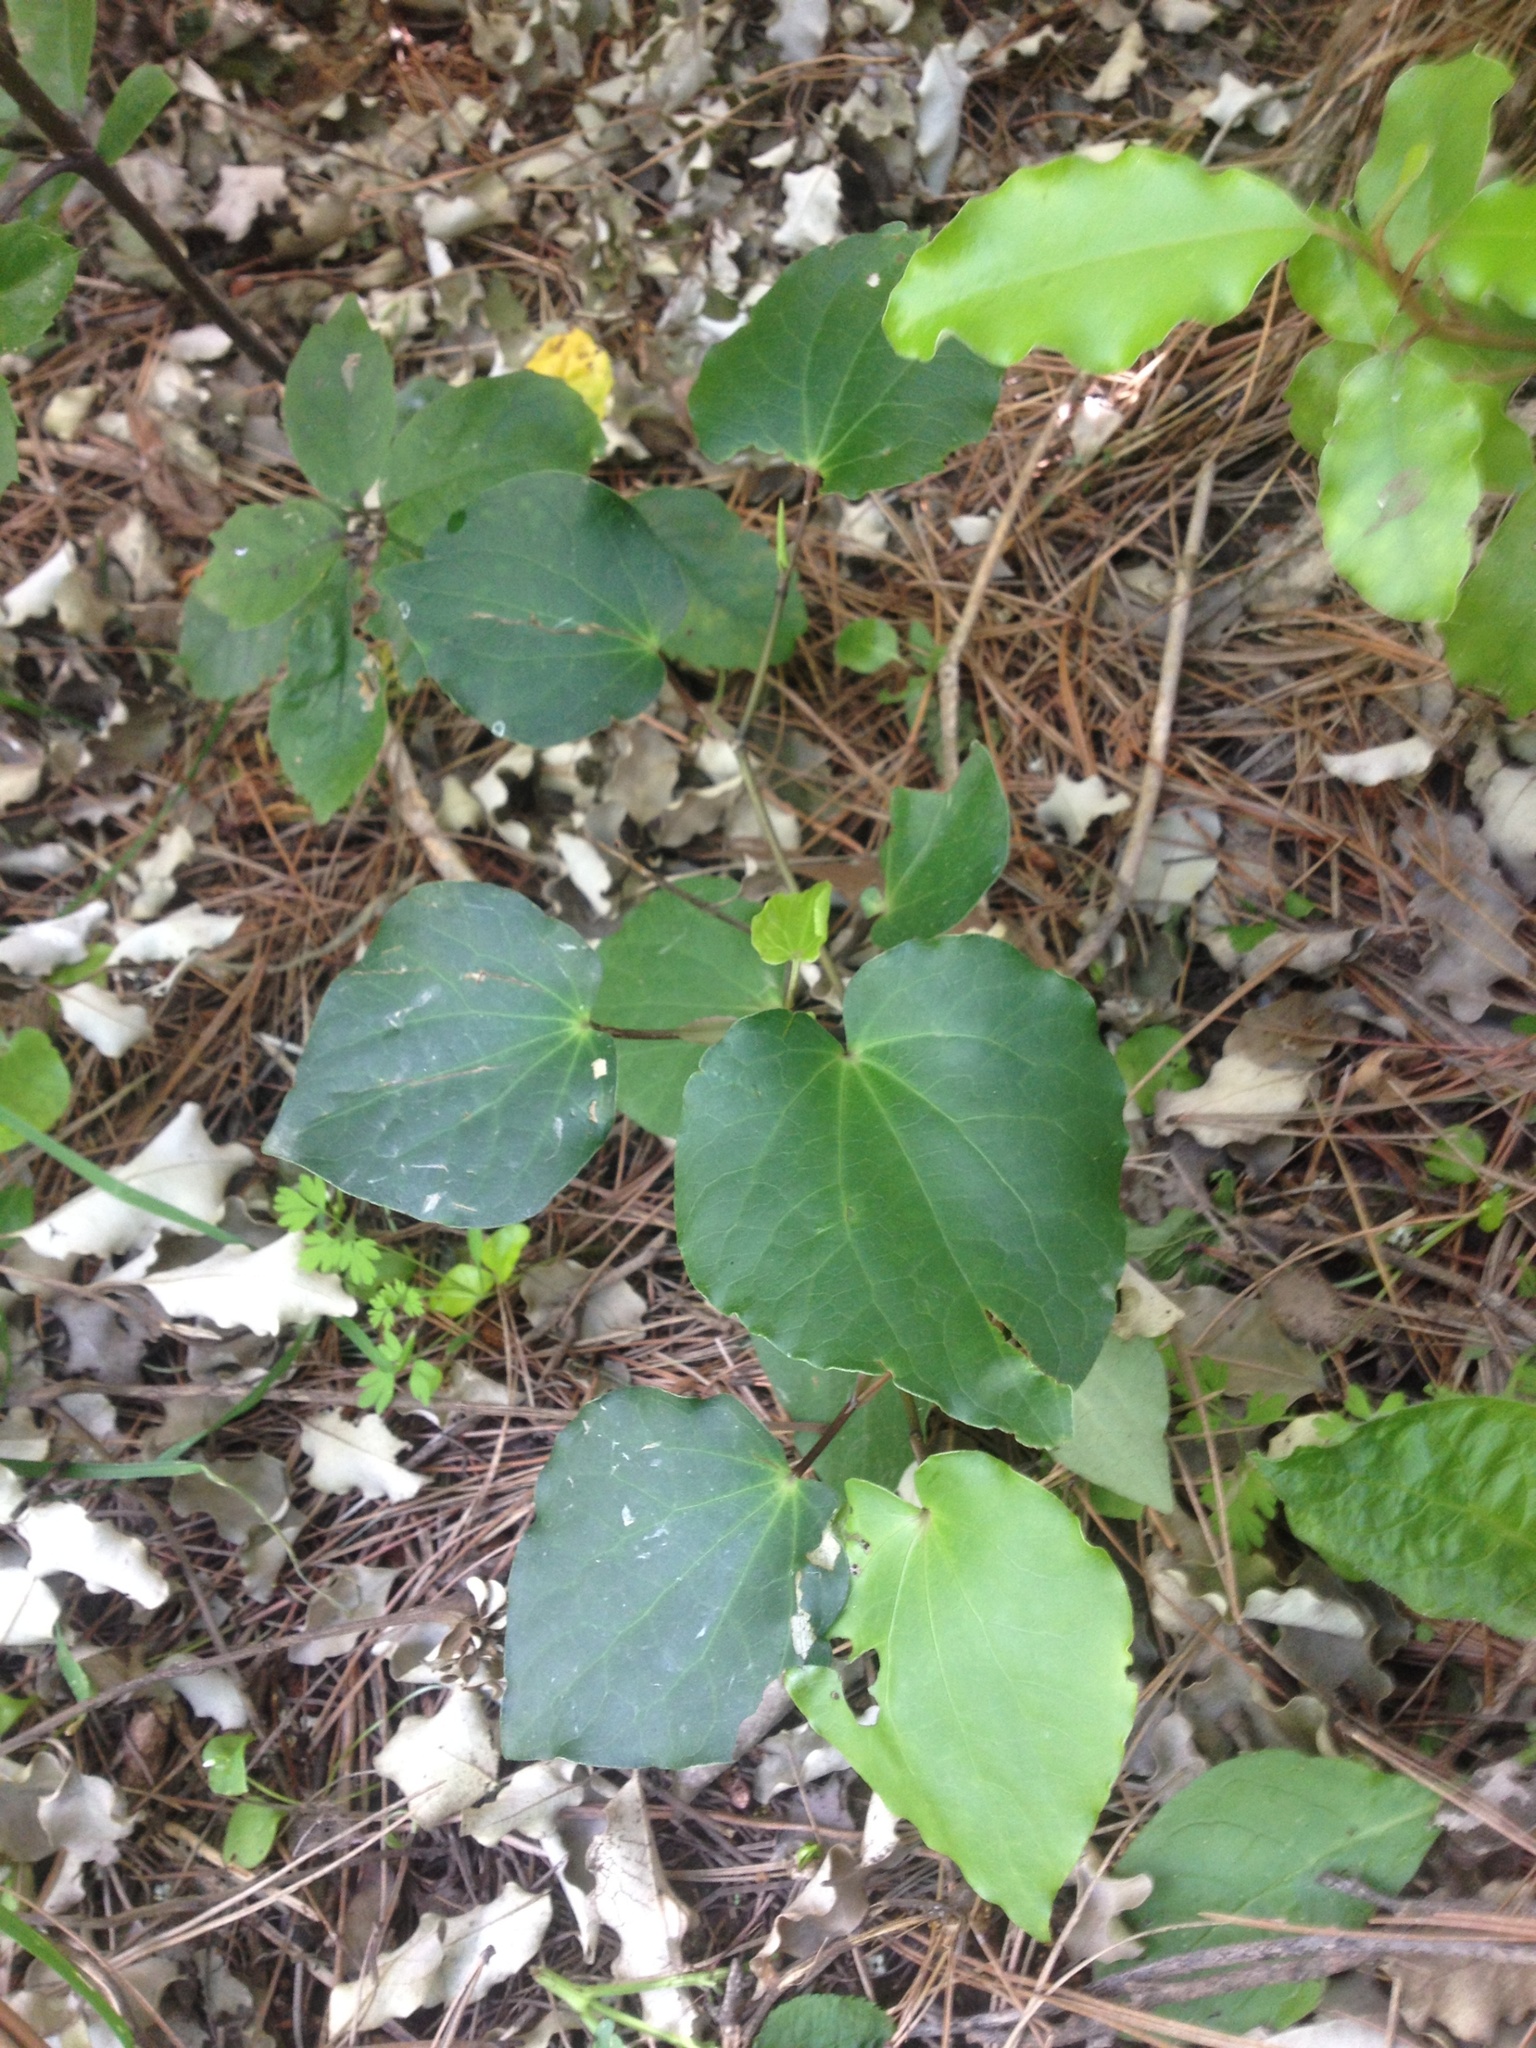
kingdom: Plantae
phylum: Tracheophyta
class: Magnoliopsida
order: Piperales
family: Piperaceae
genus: Macropiper
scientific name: Macropiper excelsum
